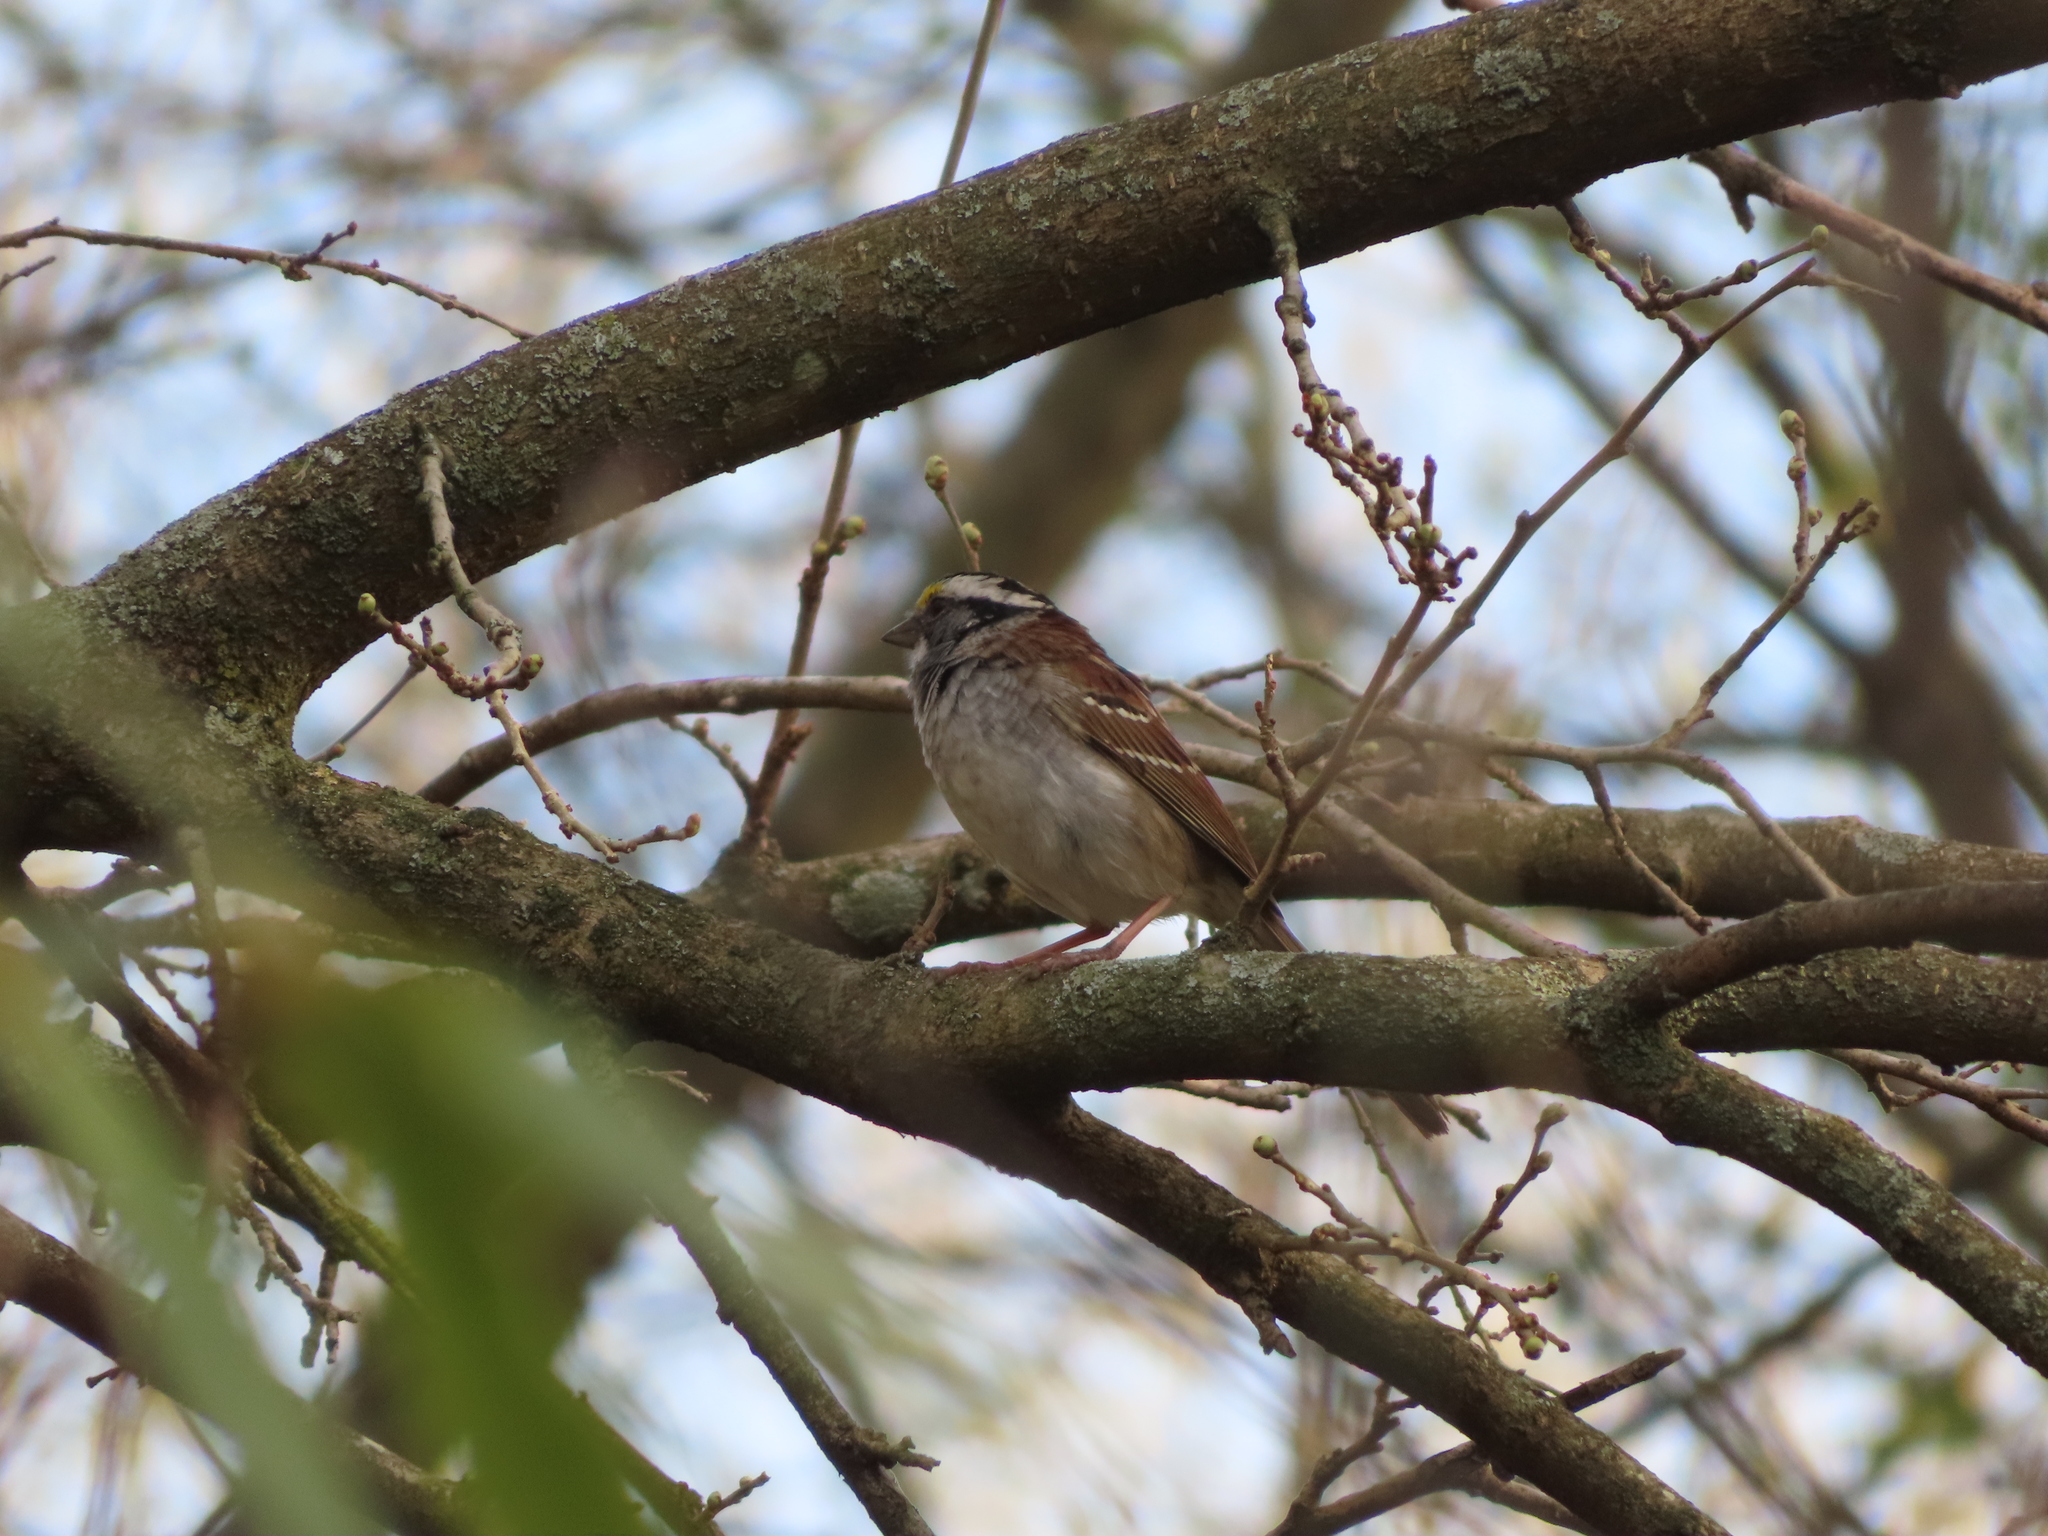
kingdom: Animalia
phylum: Chordata
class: Aves
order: Passeriformes
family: Passerellidae
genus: Zonotrichia
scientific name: Zonotrichia albicollis
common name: White-throated sparrow
